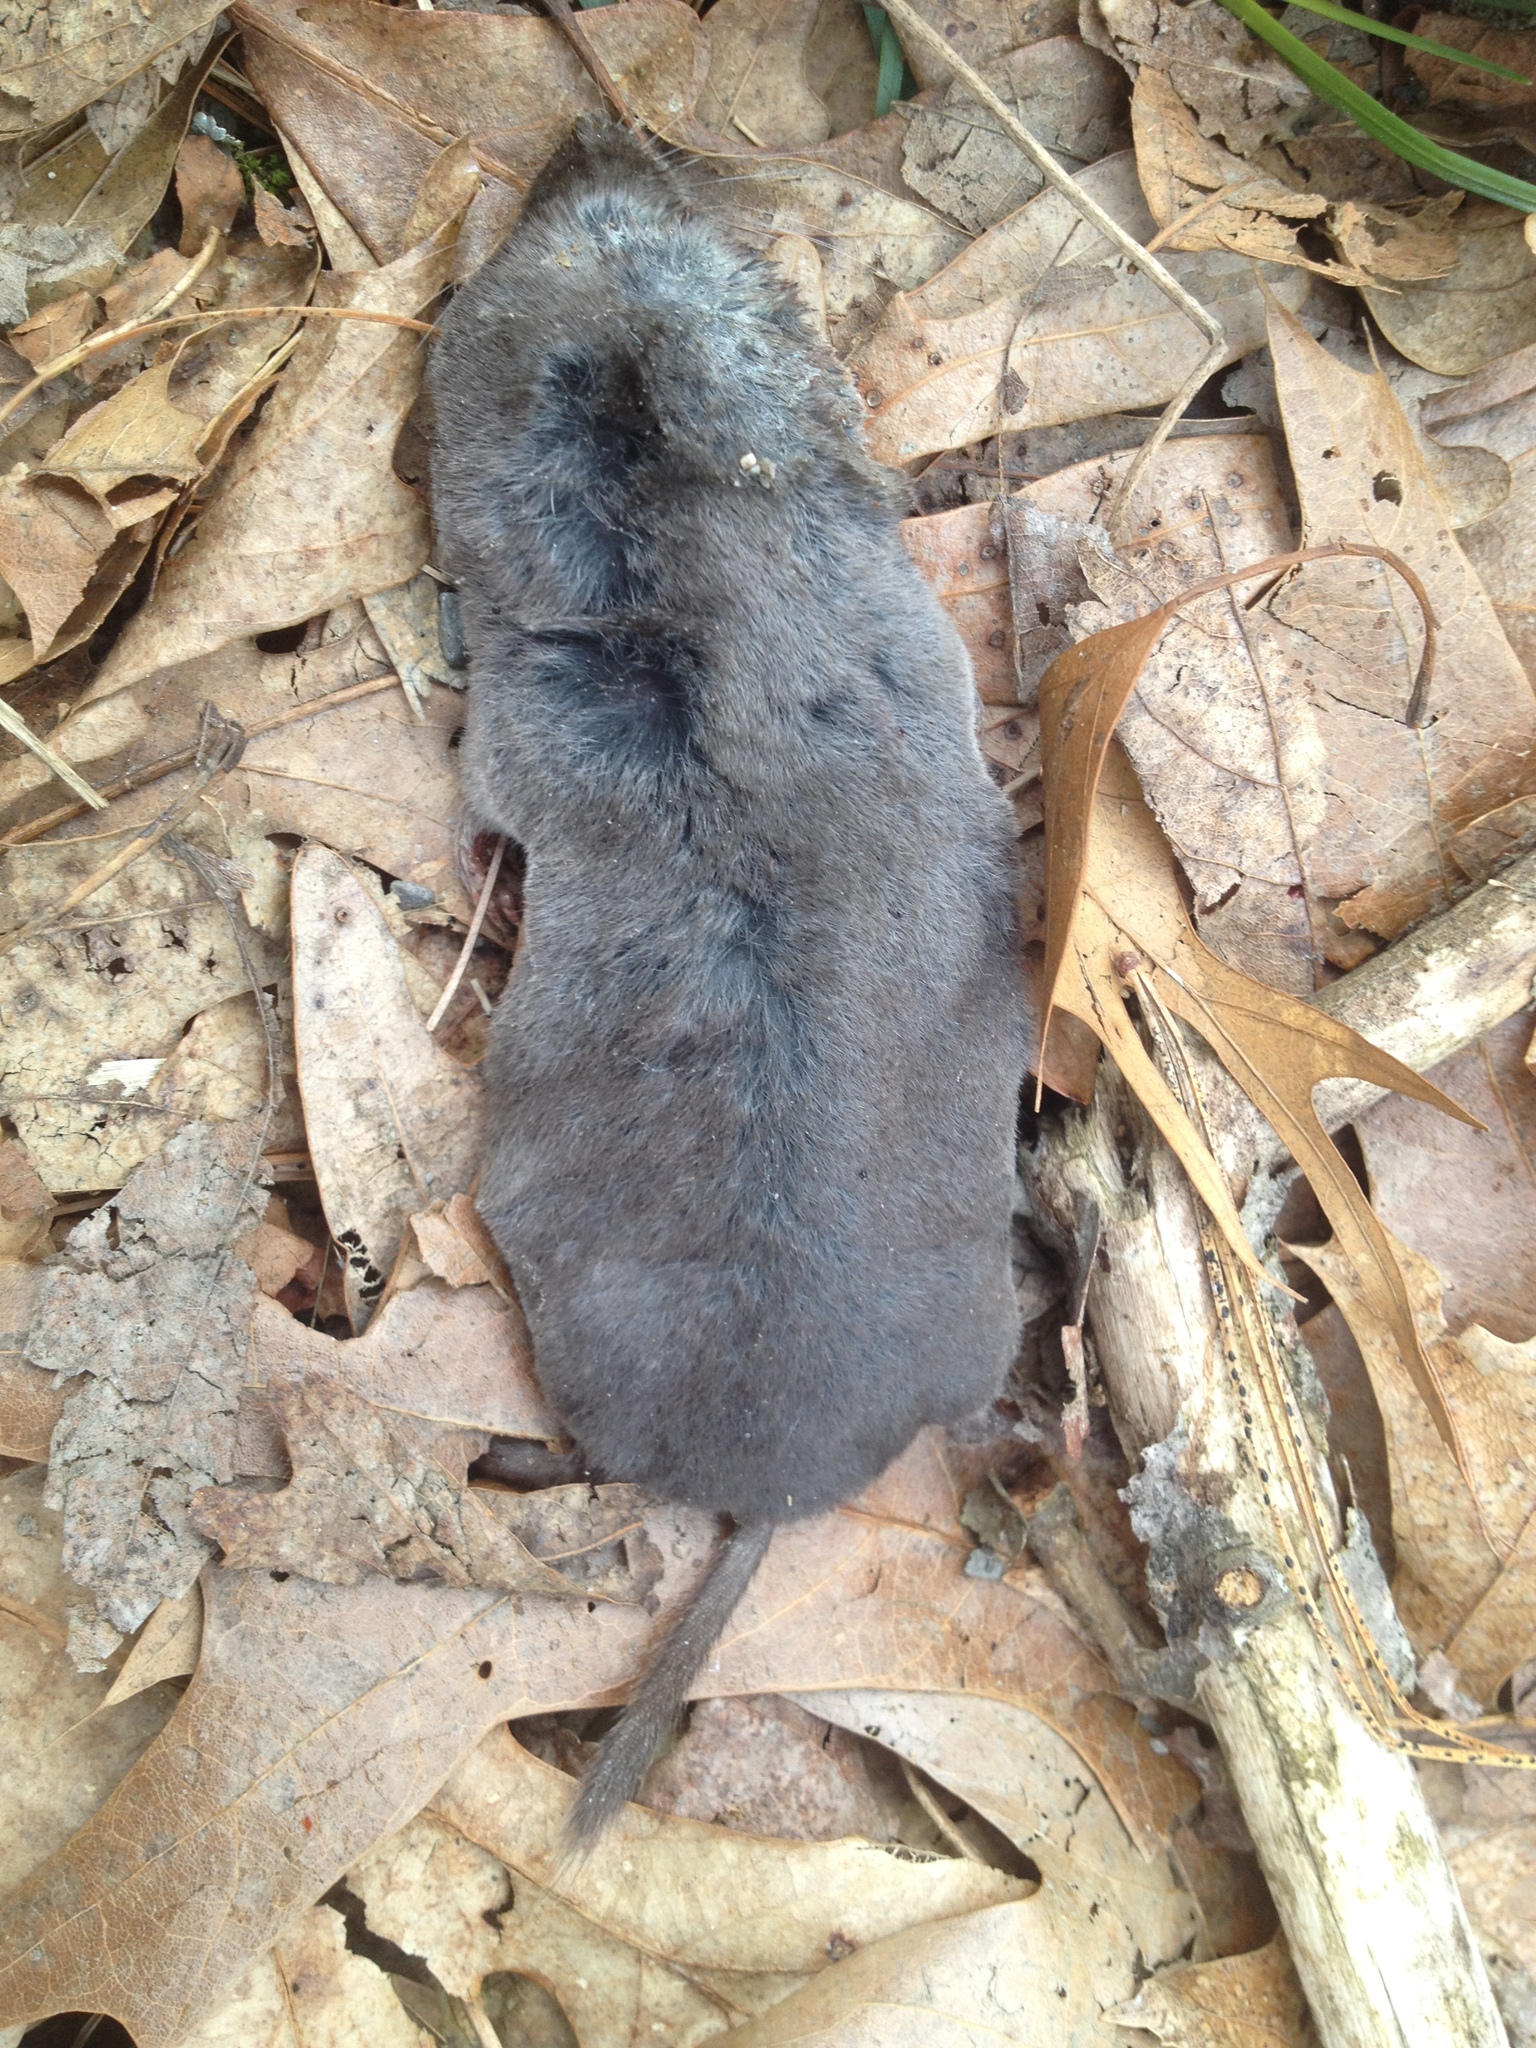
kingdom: Animalia
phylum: Chordata
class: Mammalia
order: Soricomorpha
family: Soricidae
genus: Blarina
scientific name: Blarina brevicauda
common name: Northern short-tailed shrew
